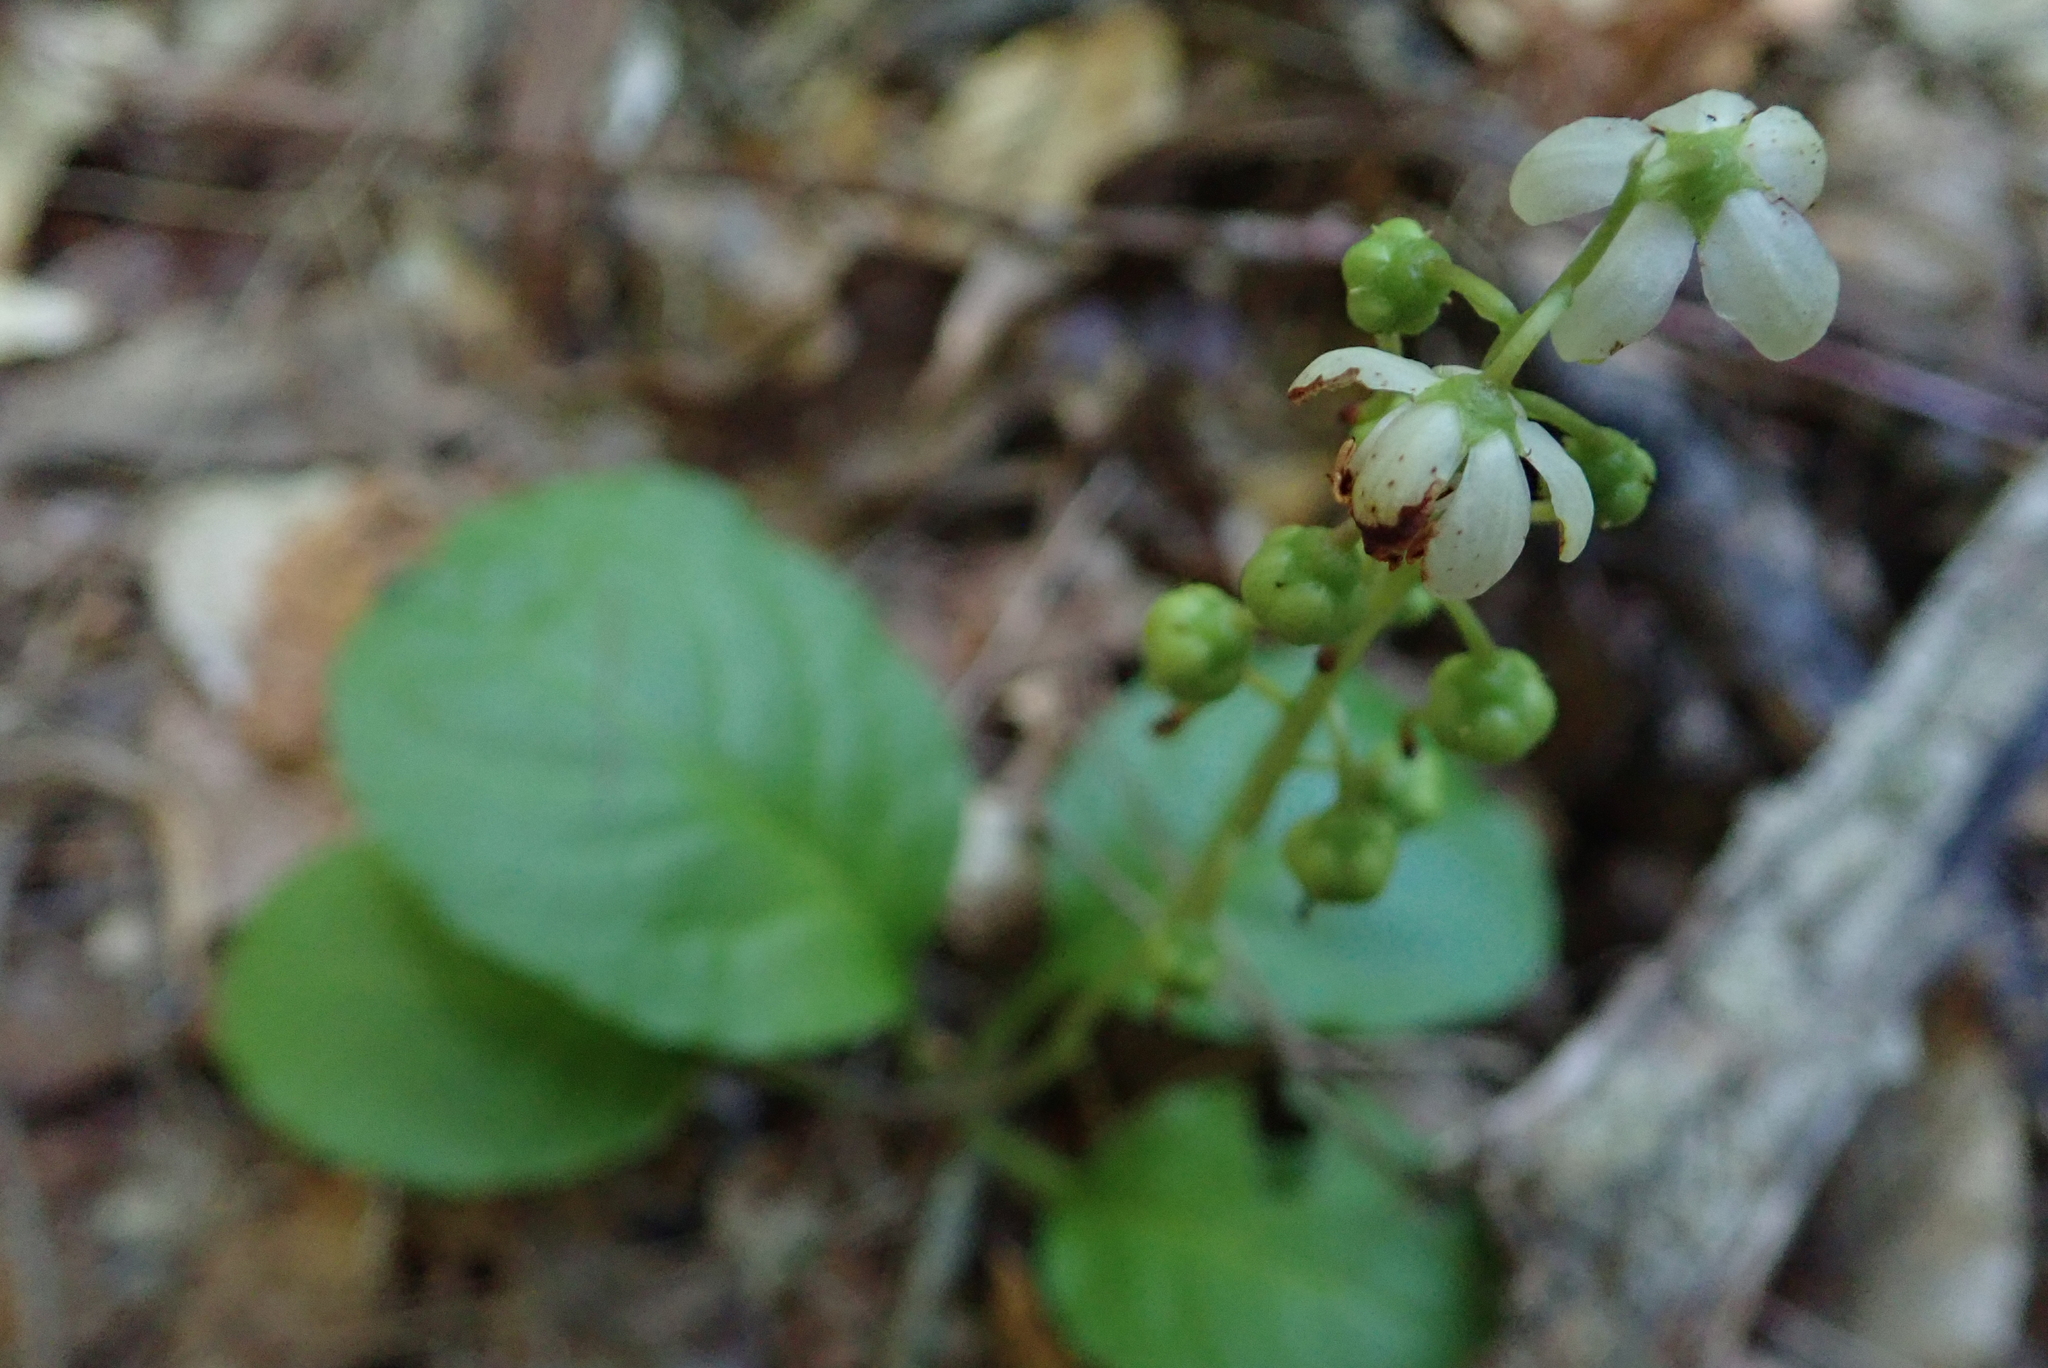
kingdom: Plantae
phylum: Tracheophyta
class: Magnoliopsida
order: Ericales
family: Ericaceae
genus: Pyrola
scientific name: Pyrola elliptica
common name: Shinleaf
